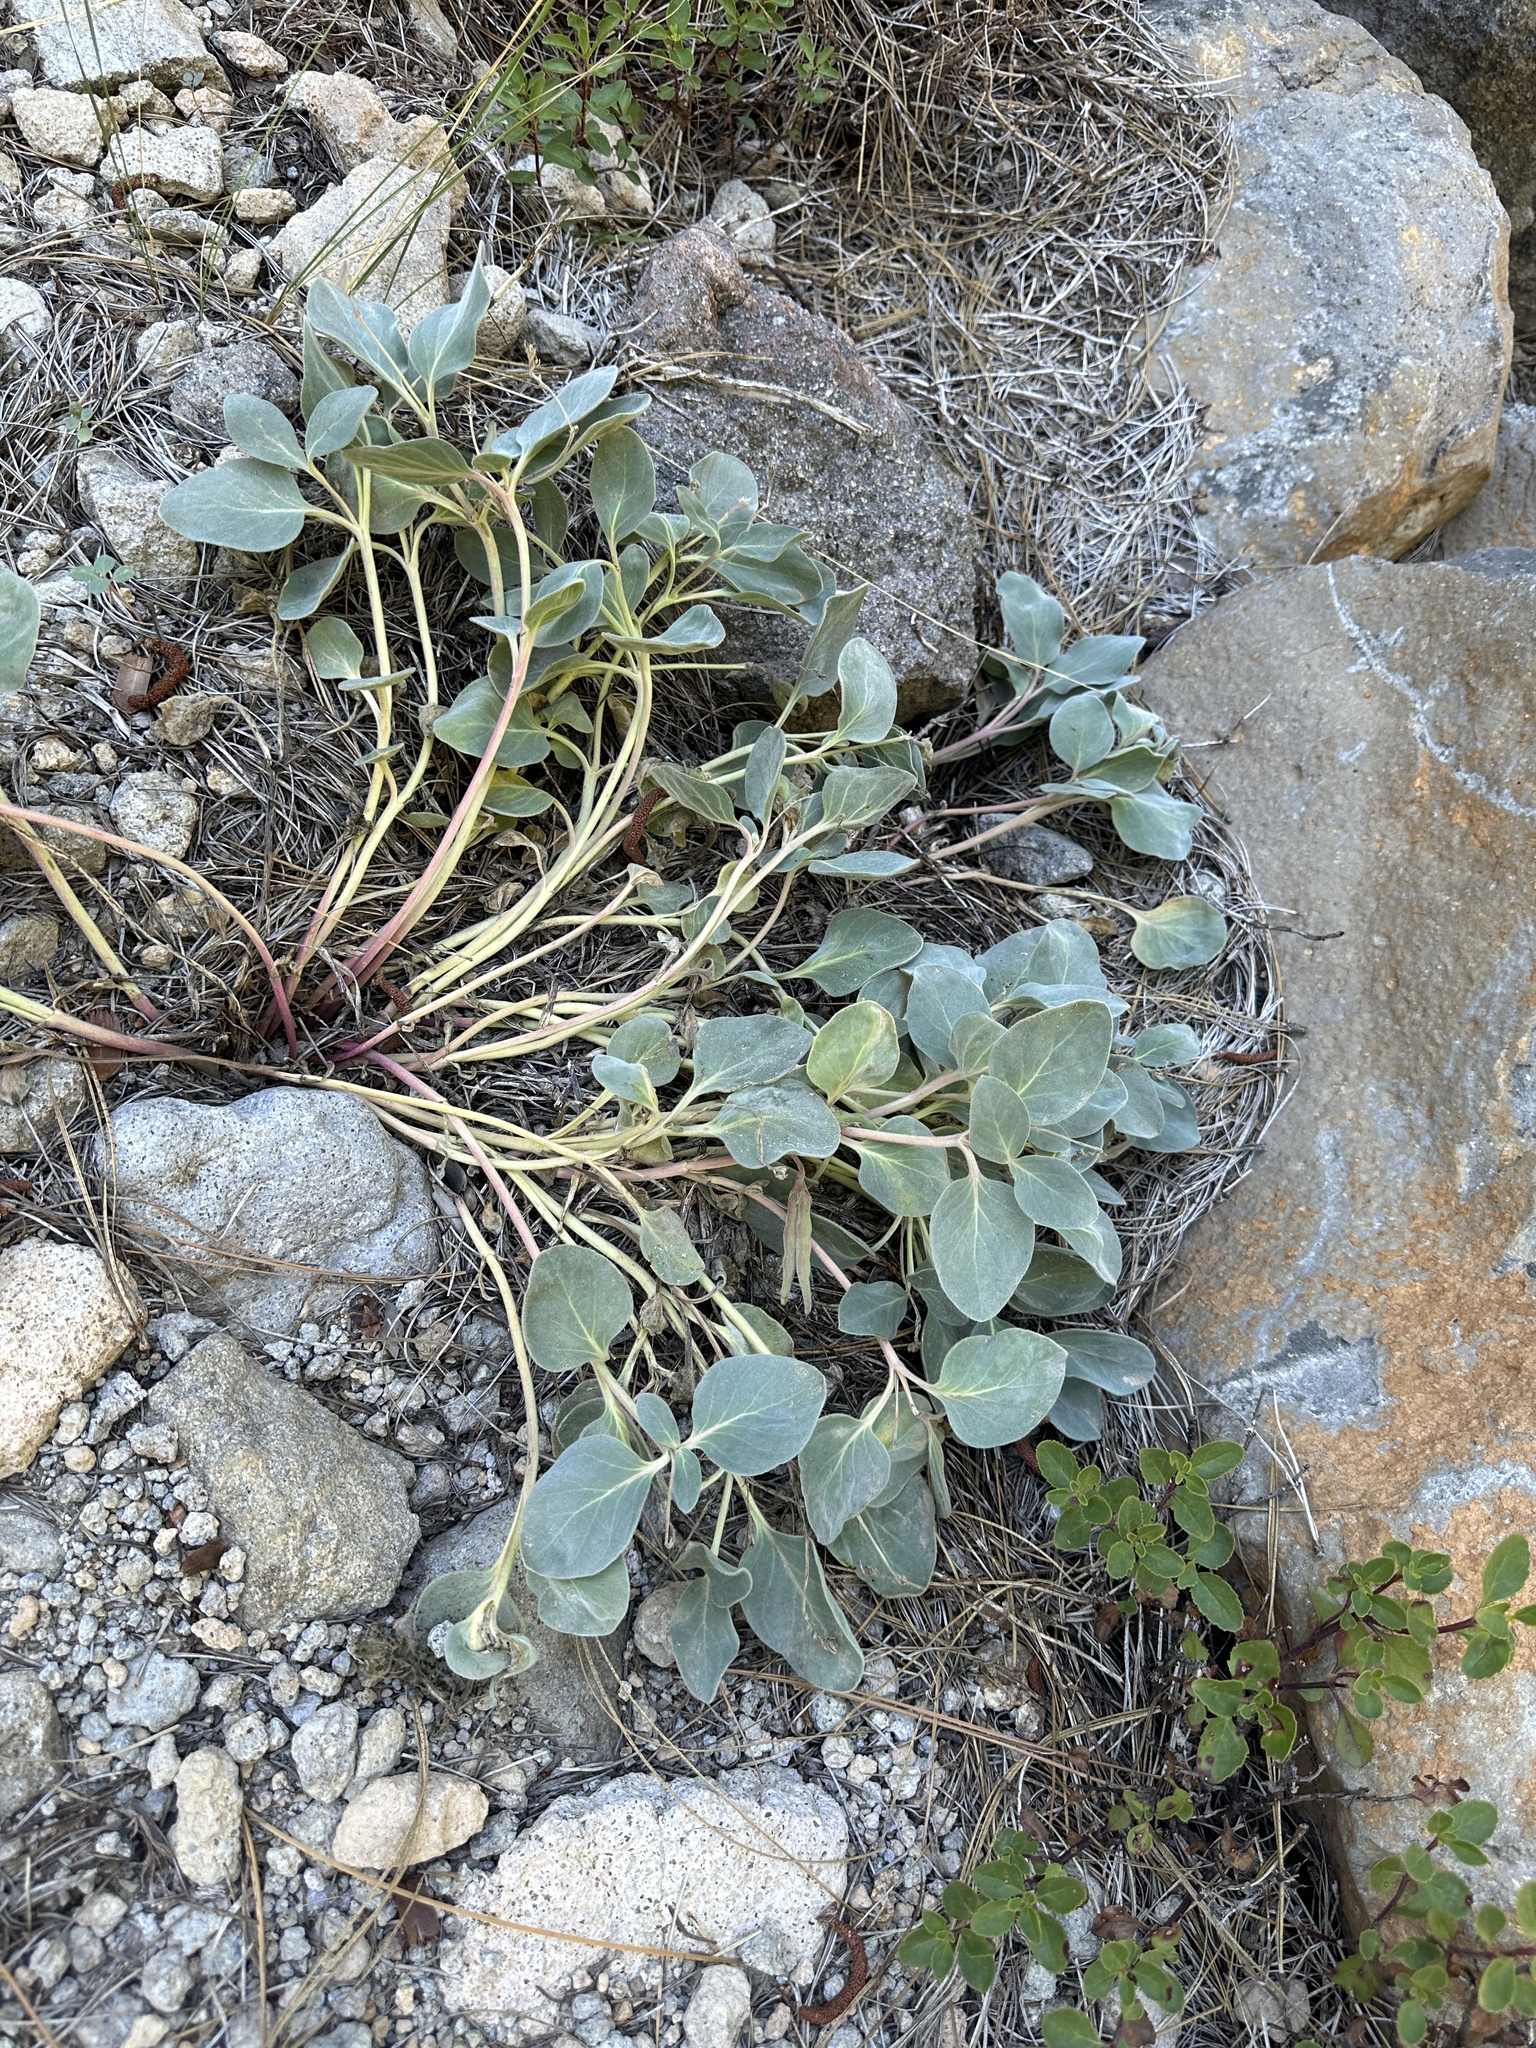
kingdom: Plantae
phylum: Tracheophyta
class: Magnoliopsida
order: Gentianales
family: Apocynaceae
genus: Cycladenia
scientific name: Cycladenia humilis
